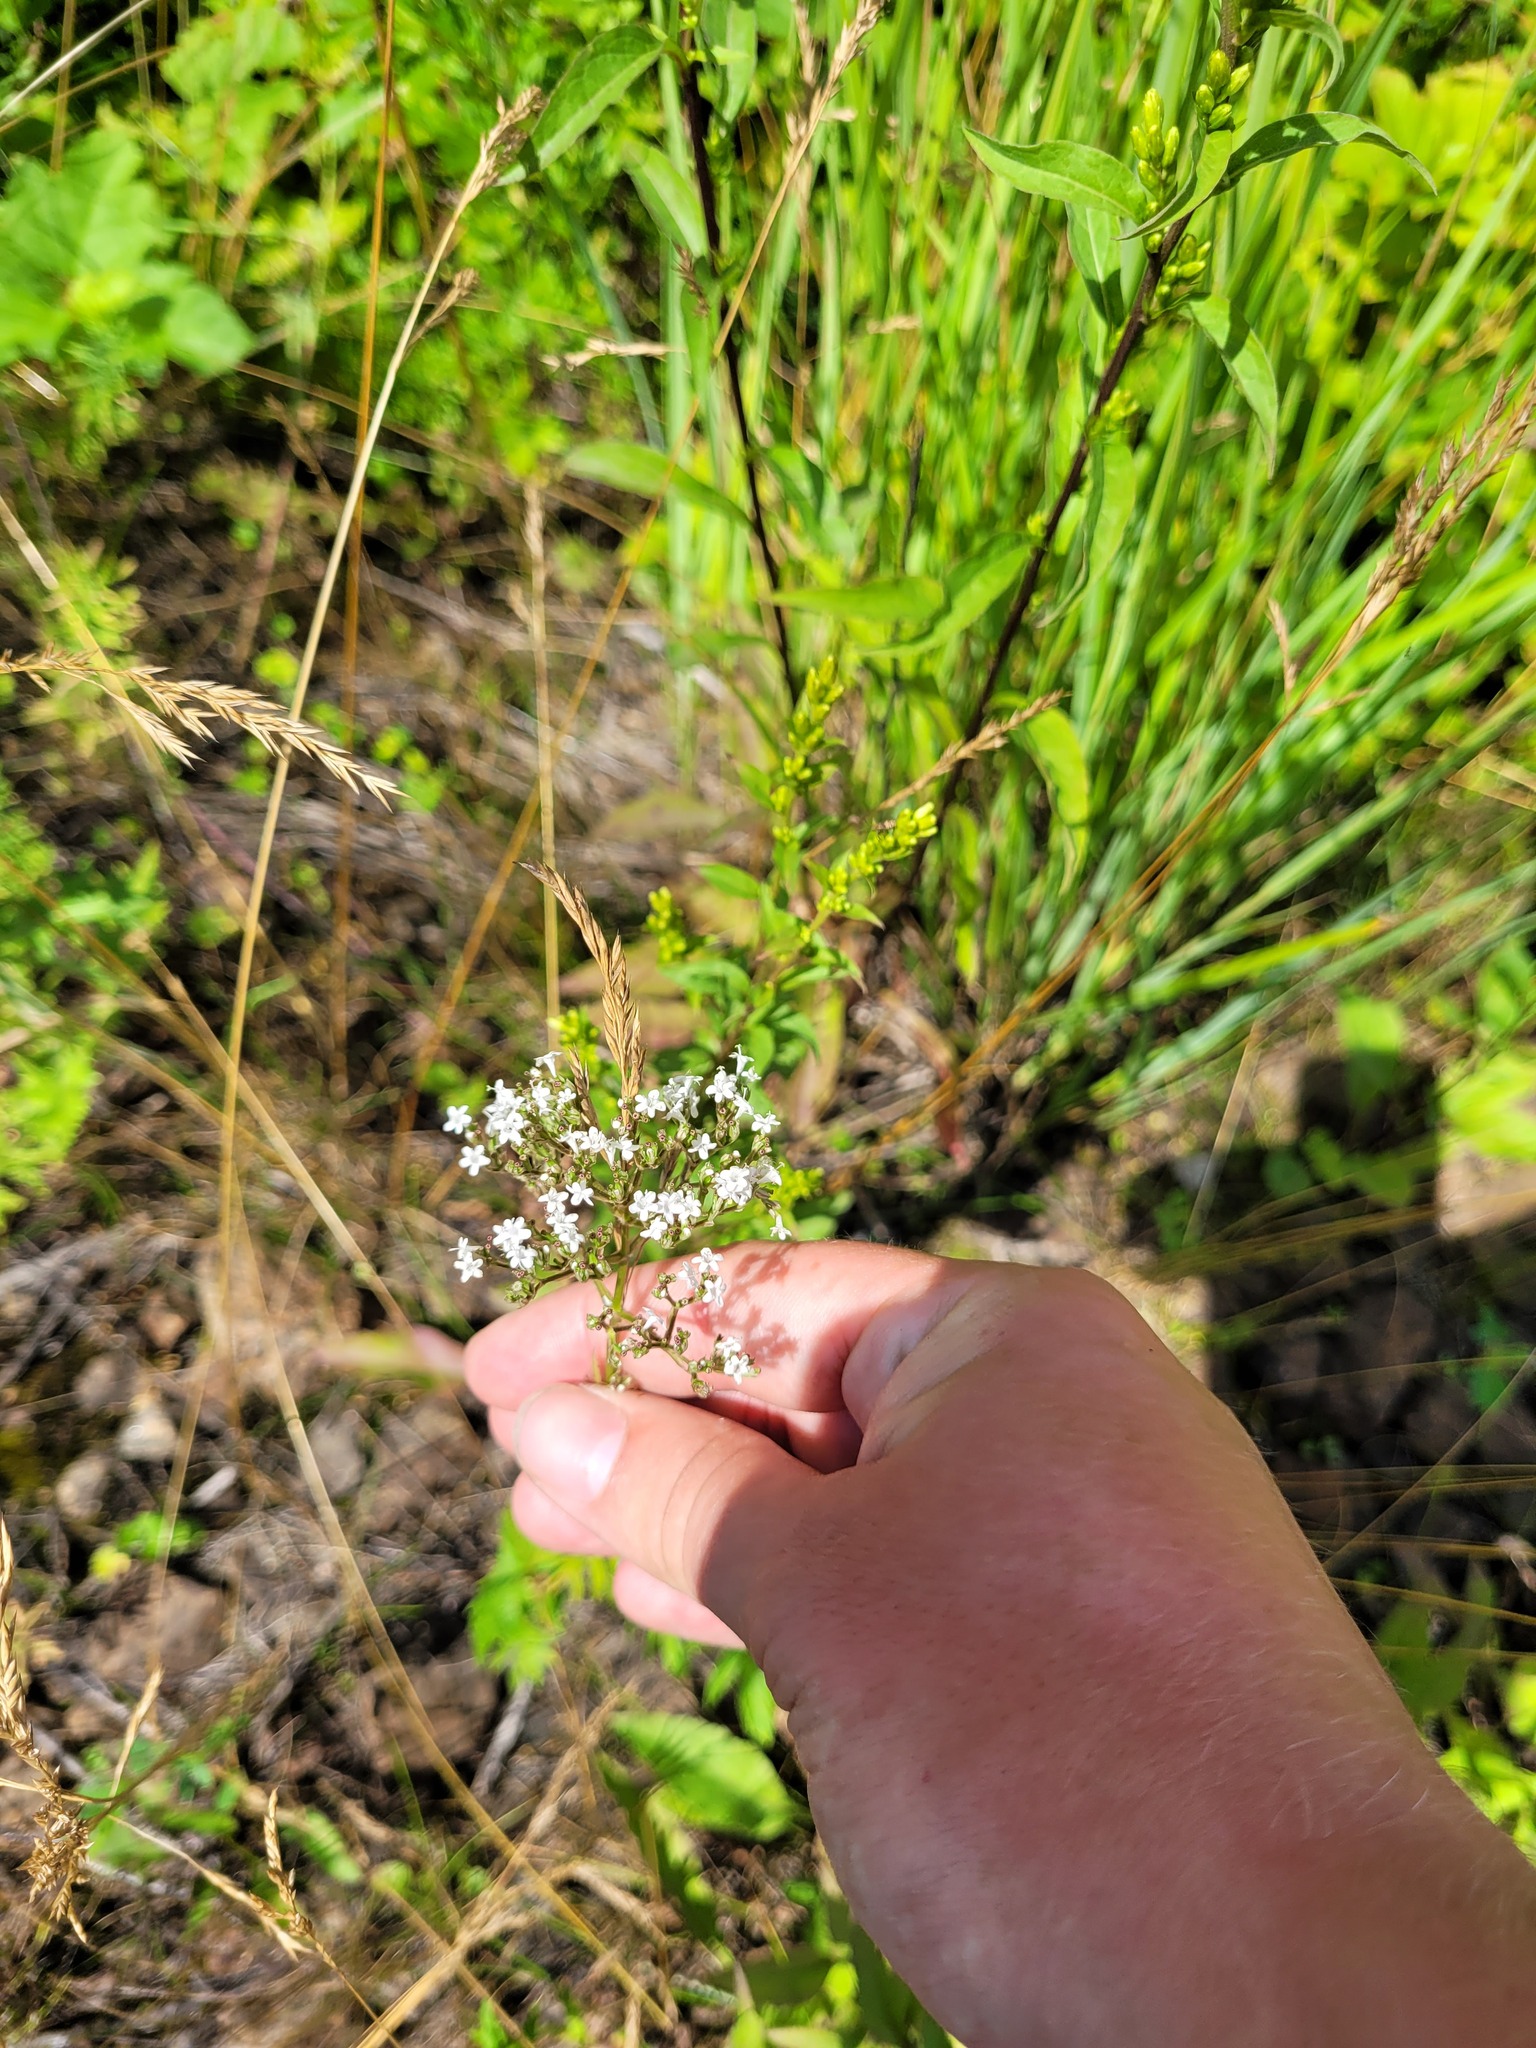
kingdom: Plantae
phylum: Tracheophyta
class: Magnoliopsida
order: Dipsacales
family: Caprifoliaceae
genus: Valeriana
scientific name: Valeriana officinalis
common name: Common valerian
